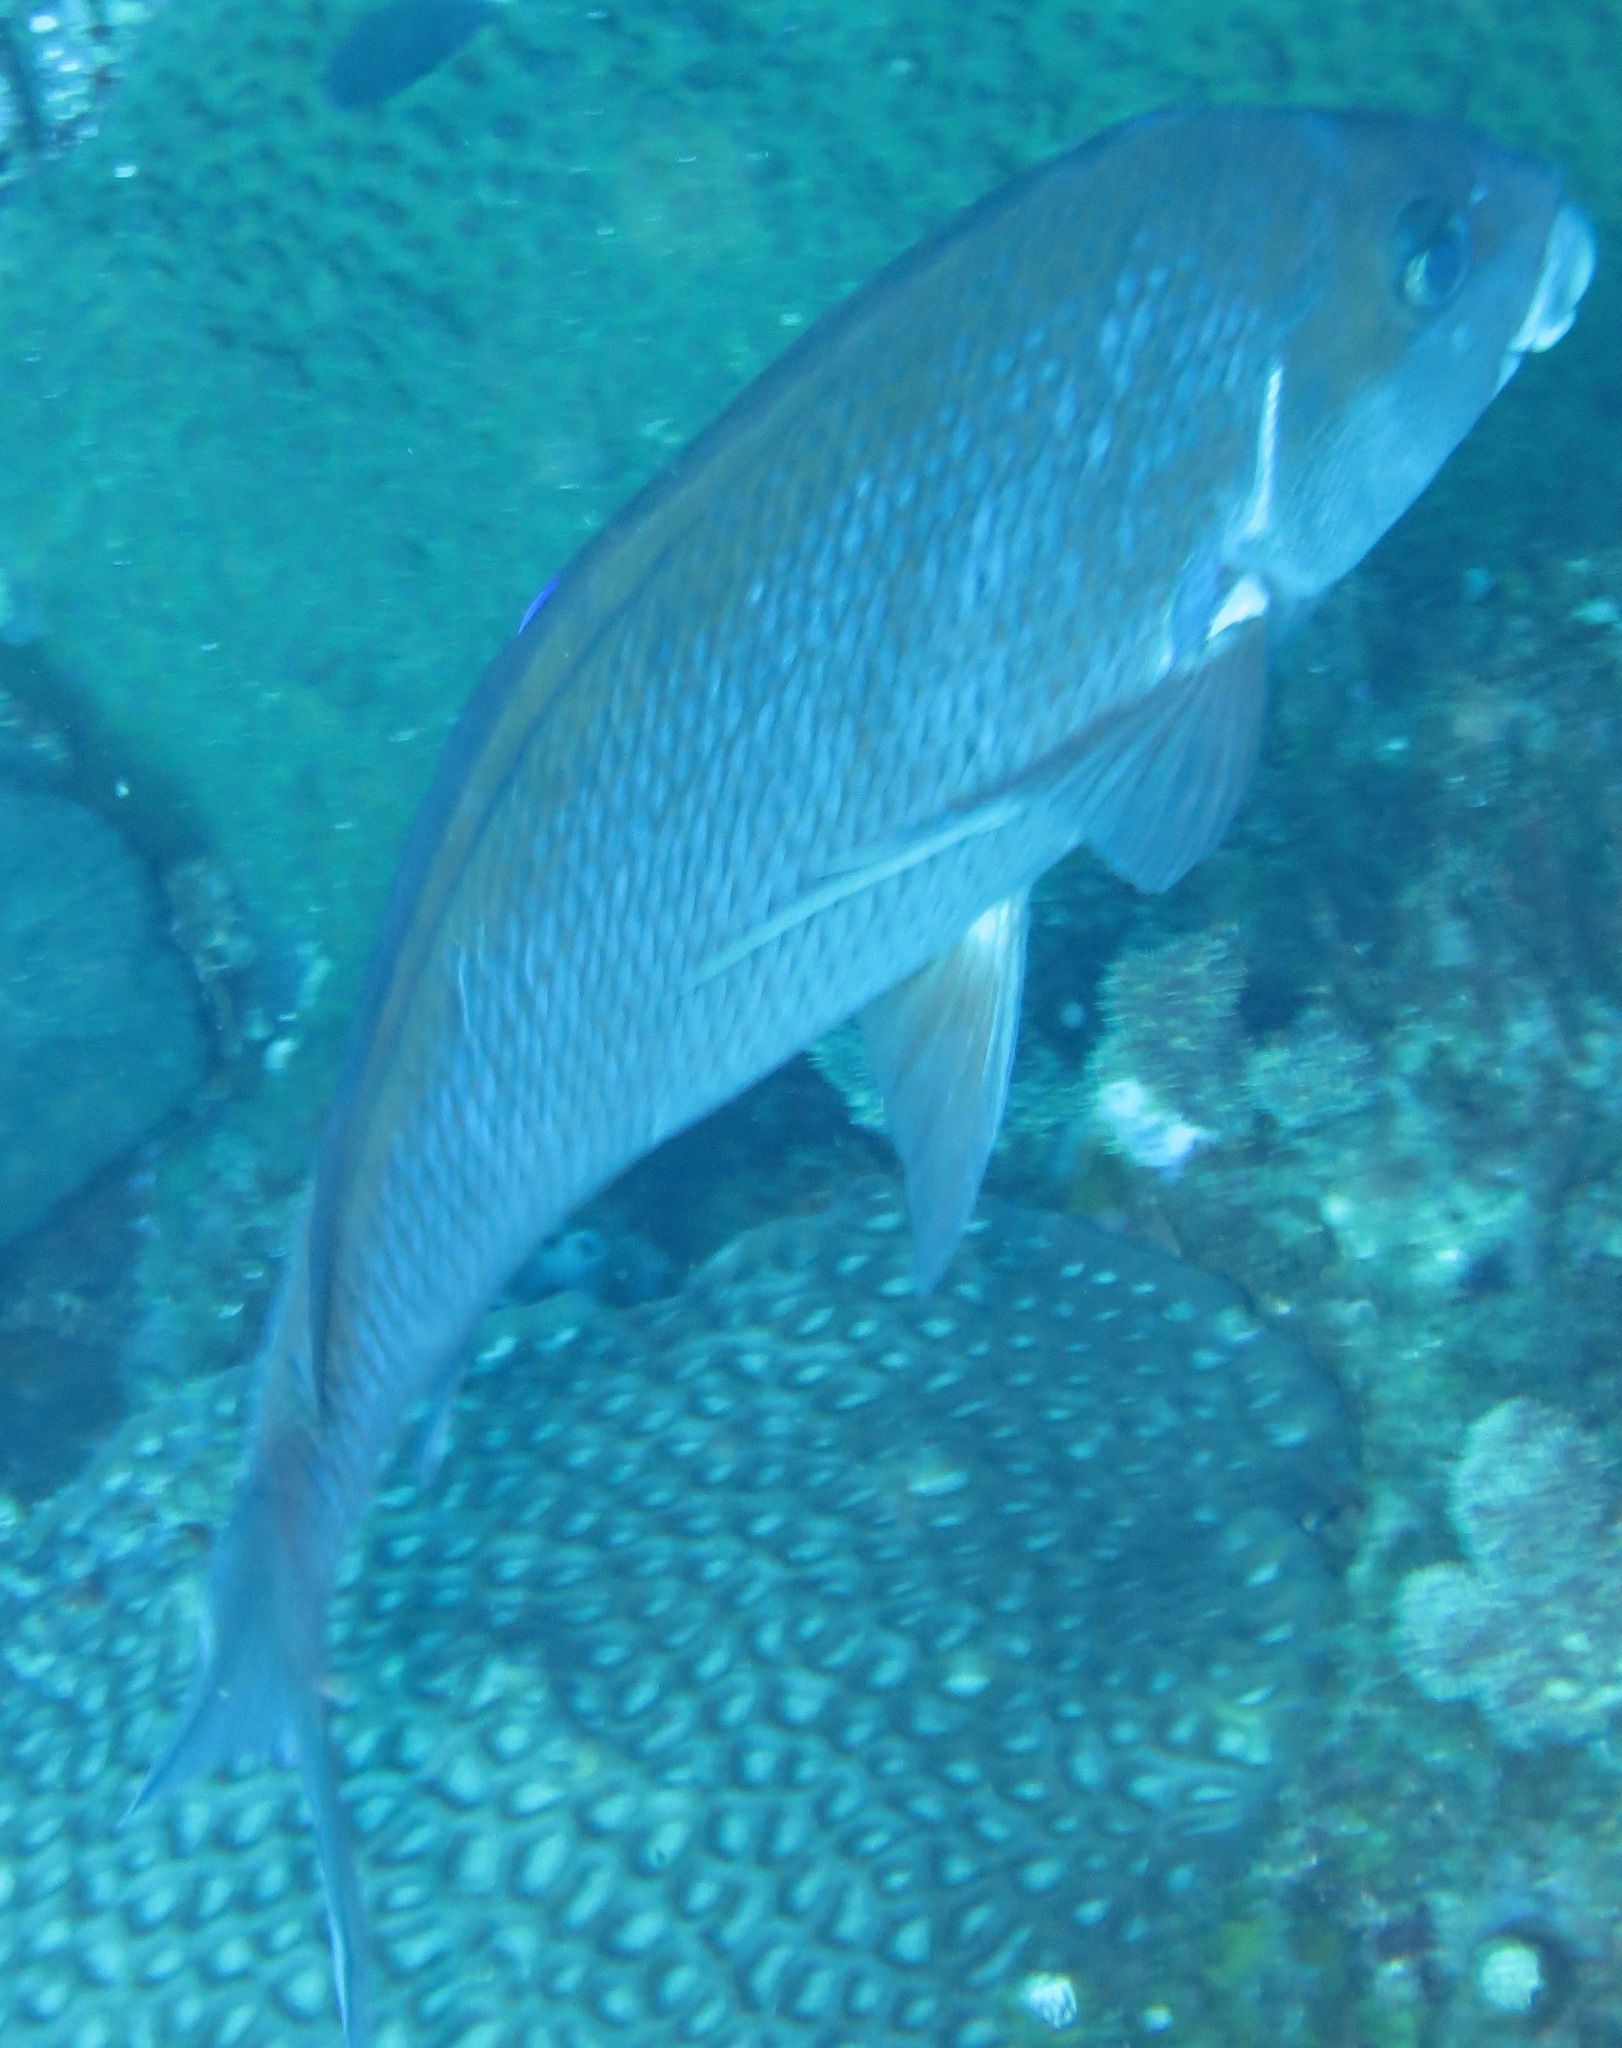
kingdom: Animalia
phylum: Chordata
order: Perciformes
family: Cheilodactylidae
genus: Chirodactylus
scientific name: Chirodactylus jessicalenorum
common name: Natal fingerfin
